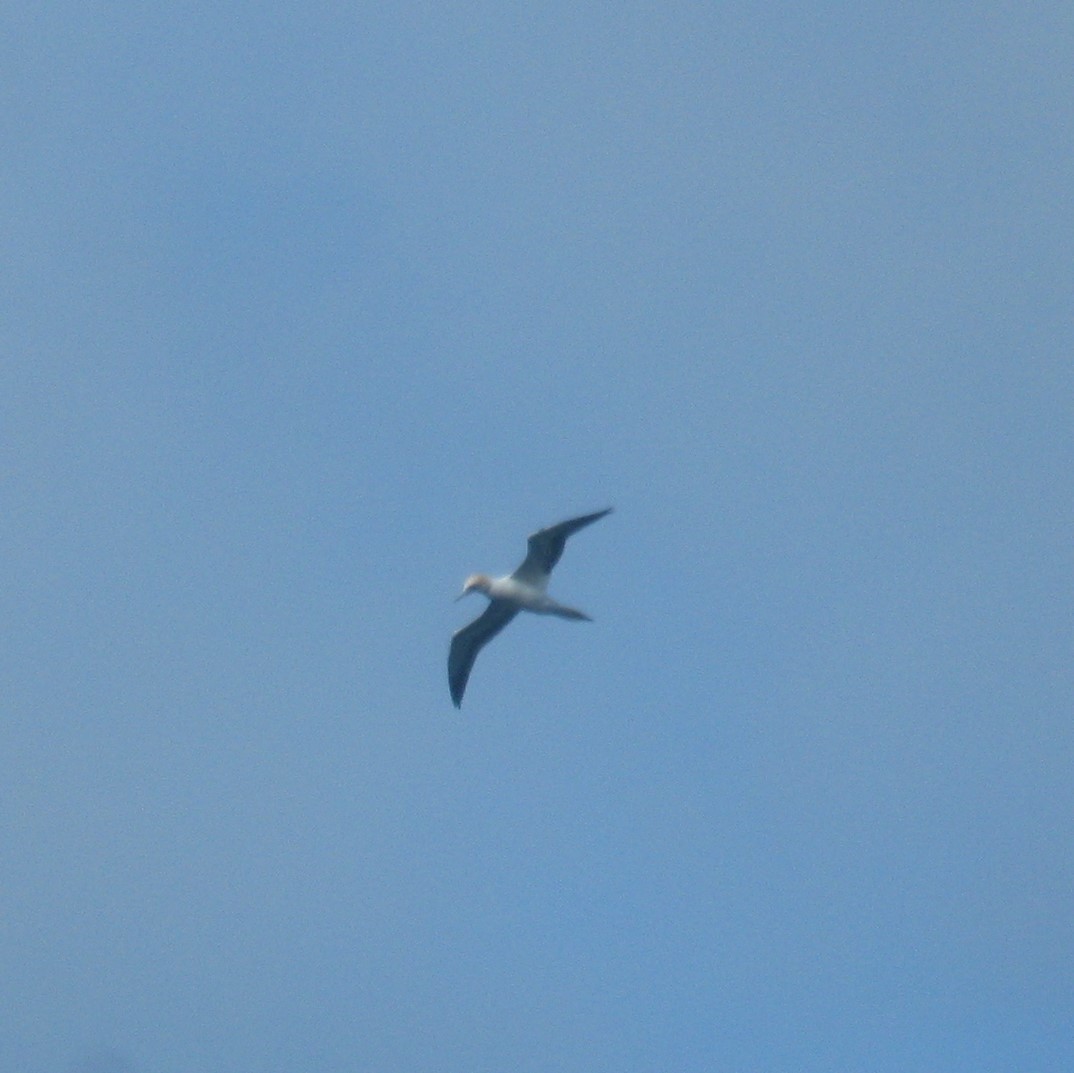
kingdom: Animalia
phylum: Chordata
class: Aves
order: Suliformes
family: Sulidae
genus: Morus
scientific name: Morus serrator
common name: Australasian gannet
